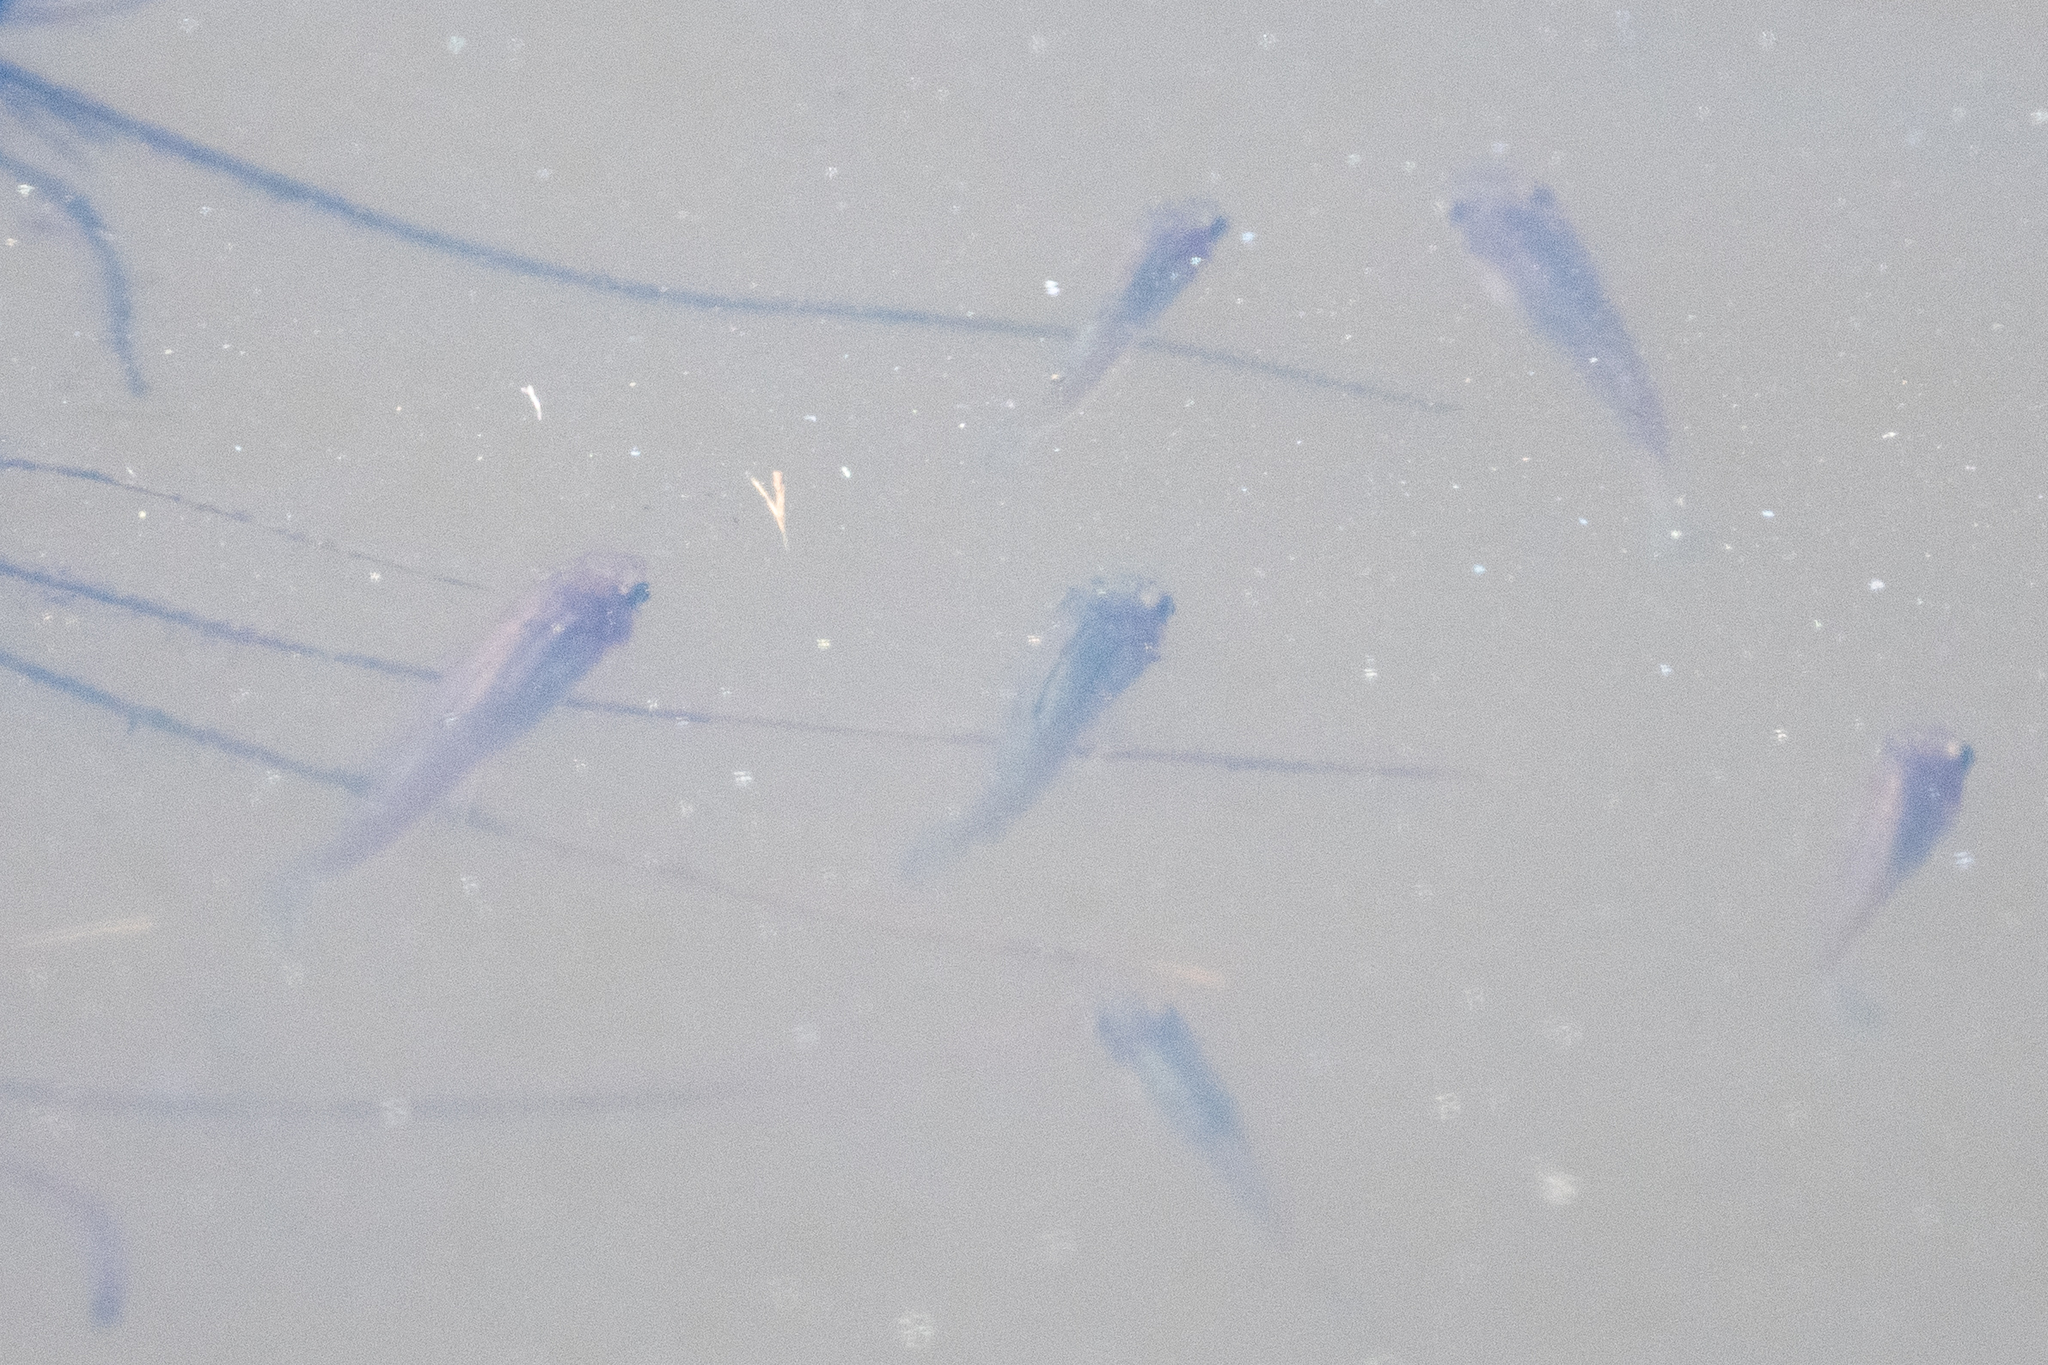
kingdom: Animalia
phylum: Chordata
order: Cyprinodontiformes
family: Poeciliidae
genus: Gambusia
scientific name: Gambusia affinis
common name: Mosquitofish
